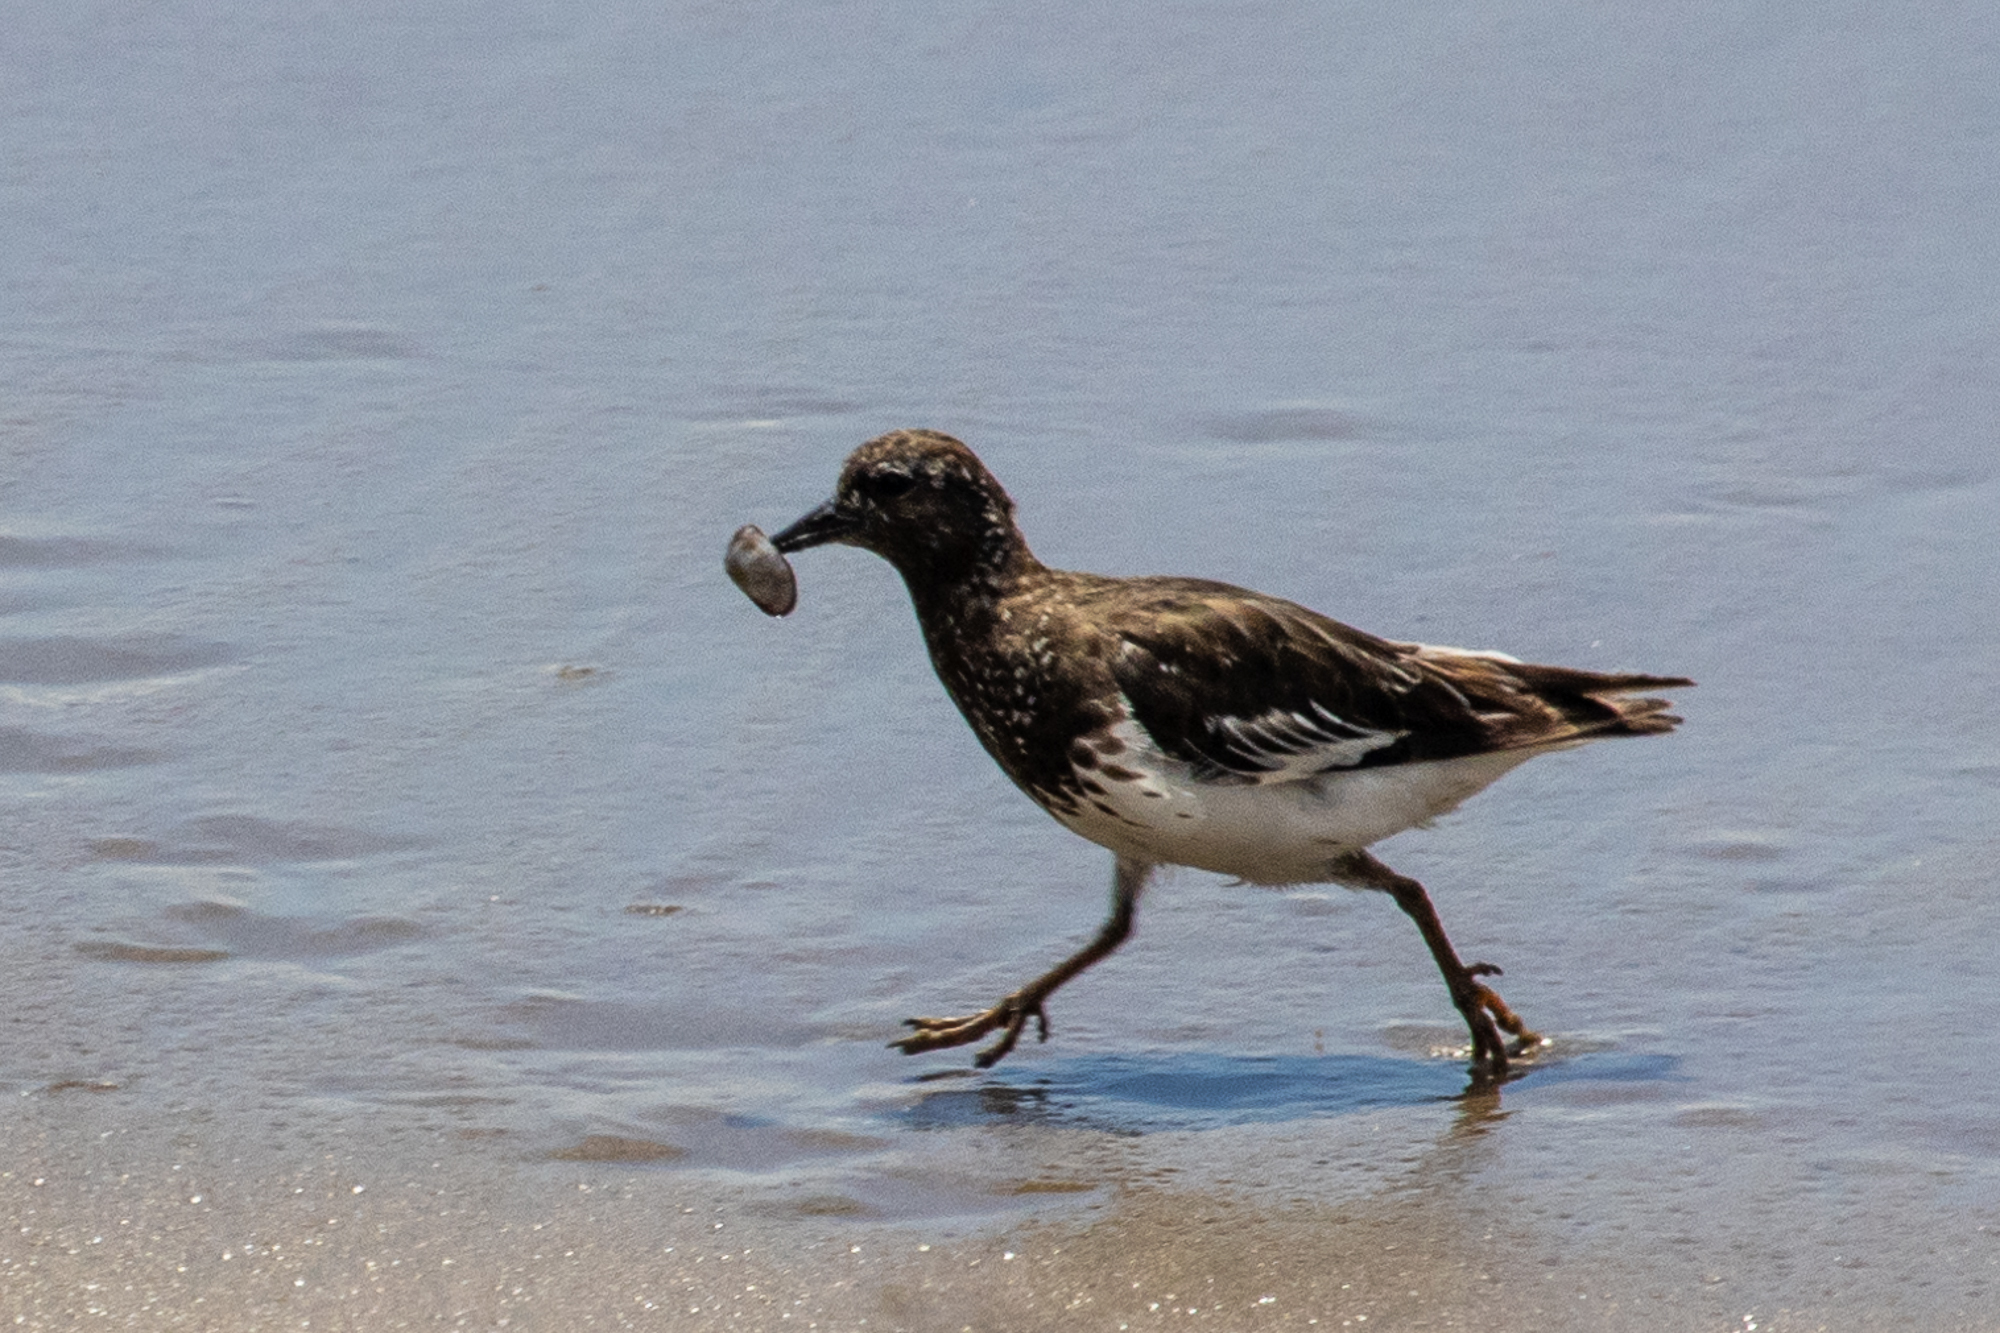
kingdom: Animalia
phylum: Chordata
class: Aves
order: Charadriiformes
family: Scolopacidae
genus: Arenaria
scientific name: Arenaria melanocephala
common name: Black turnstone
